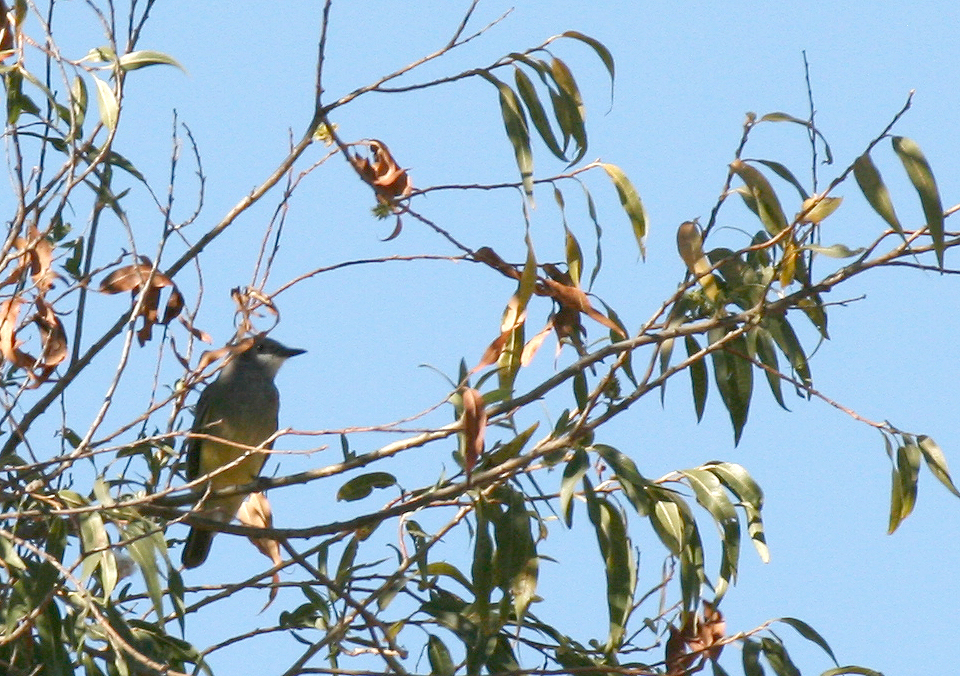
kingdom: Animalia
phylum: Chordata
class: Aves
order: Passeriformes
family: Tyrannidae
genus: Tyrannus
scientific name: Tyrannus vociferans
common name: Cassin's kingbird
